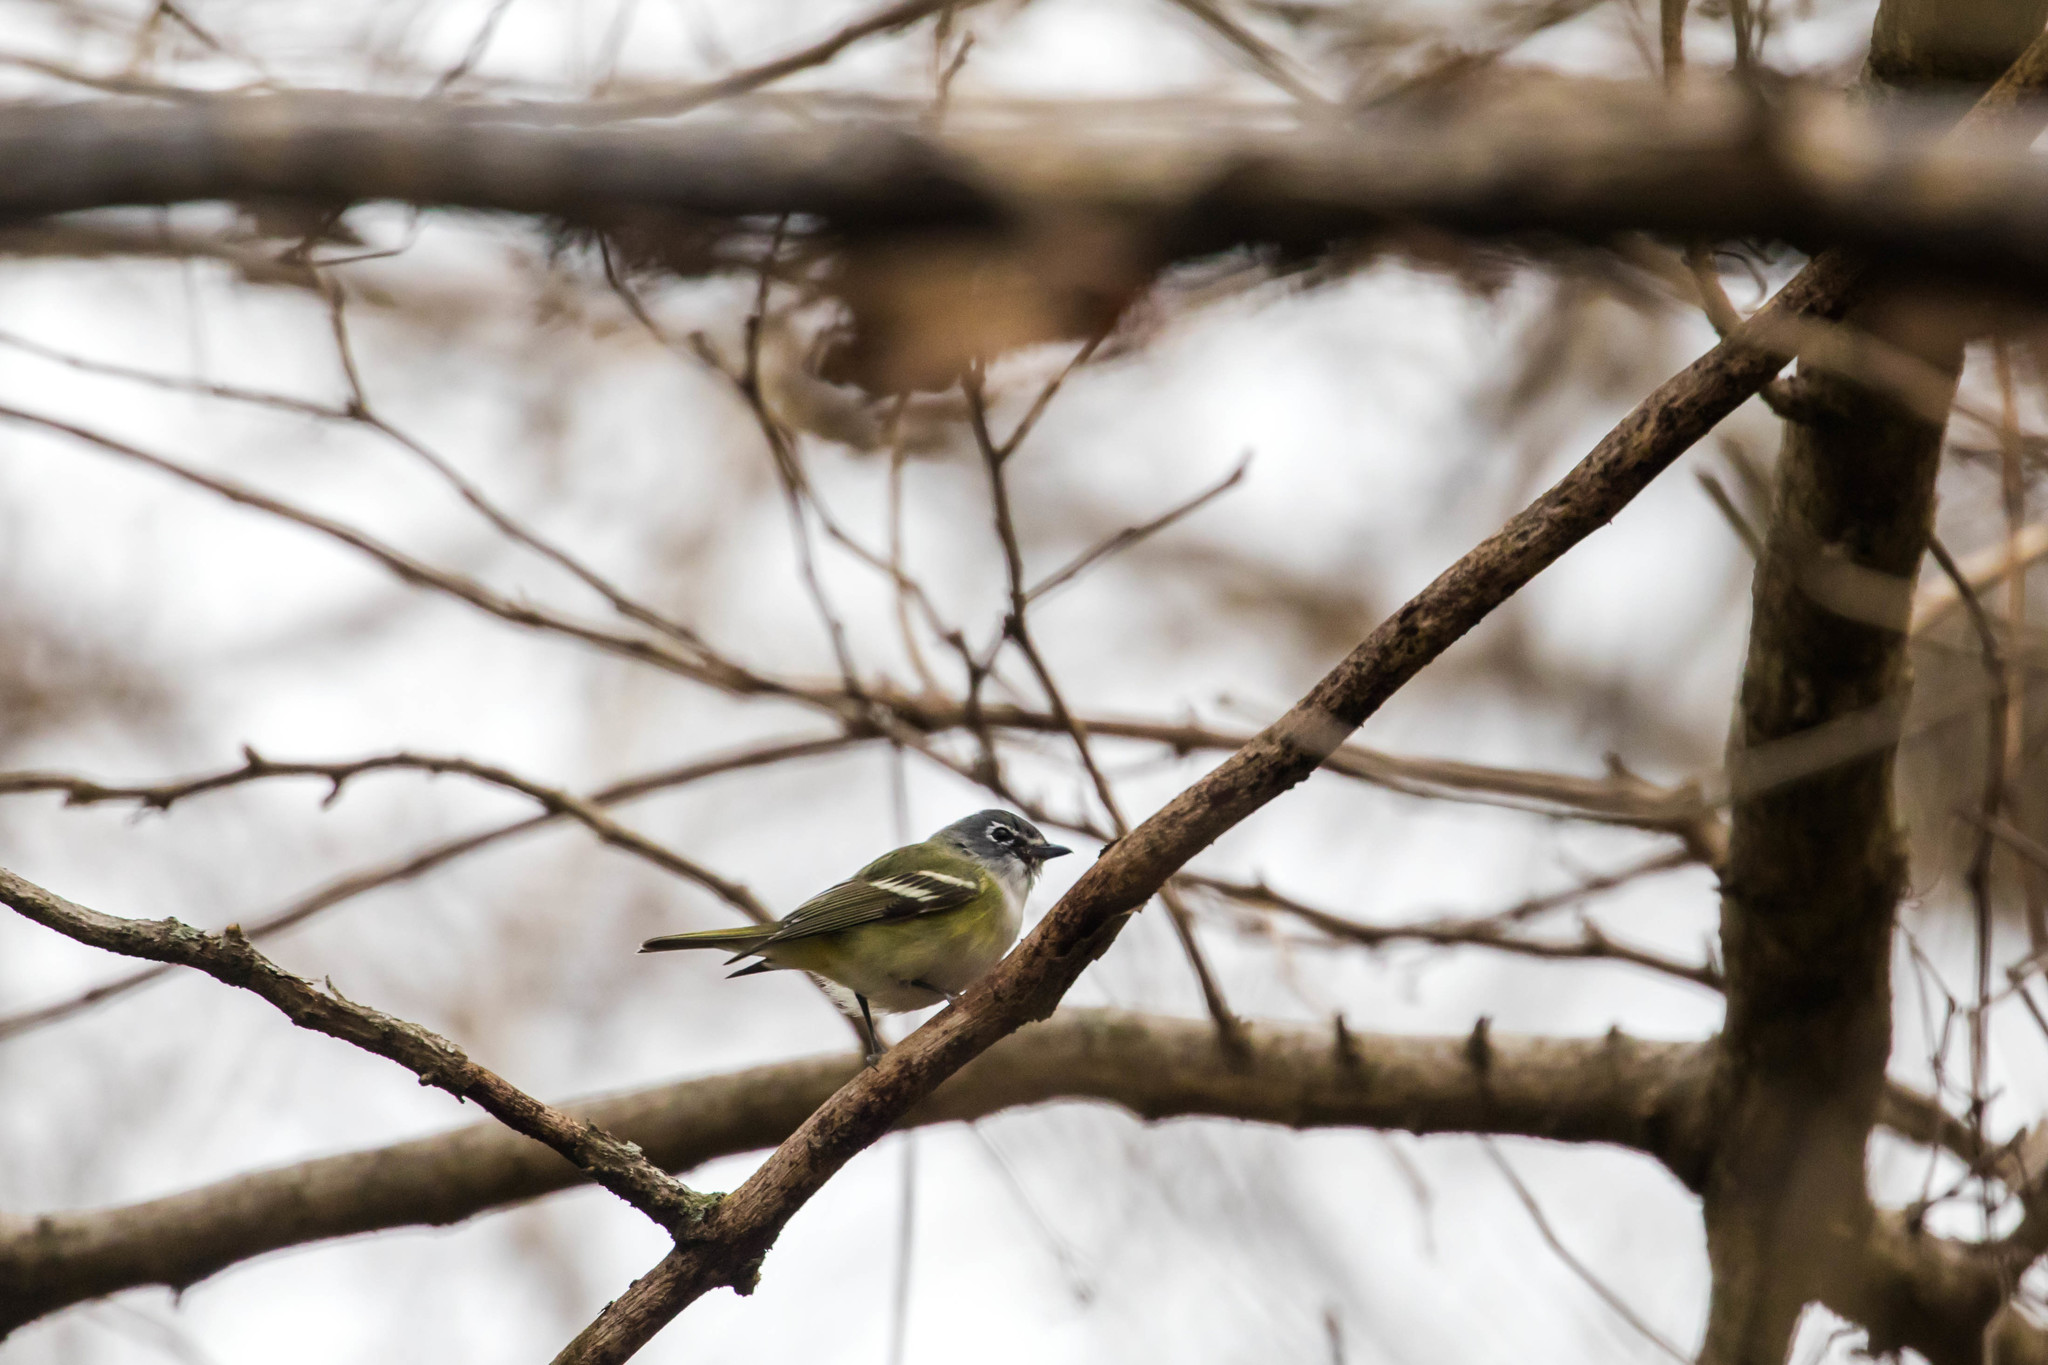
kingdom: Animalia
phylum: Chordata
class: Aves
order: Passeriformes
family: Vireonidae
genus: Vireo
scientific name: Vireo solitarius
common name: Blue-headed vireo
